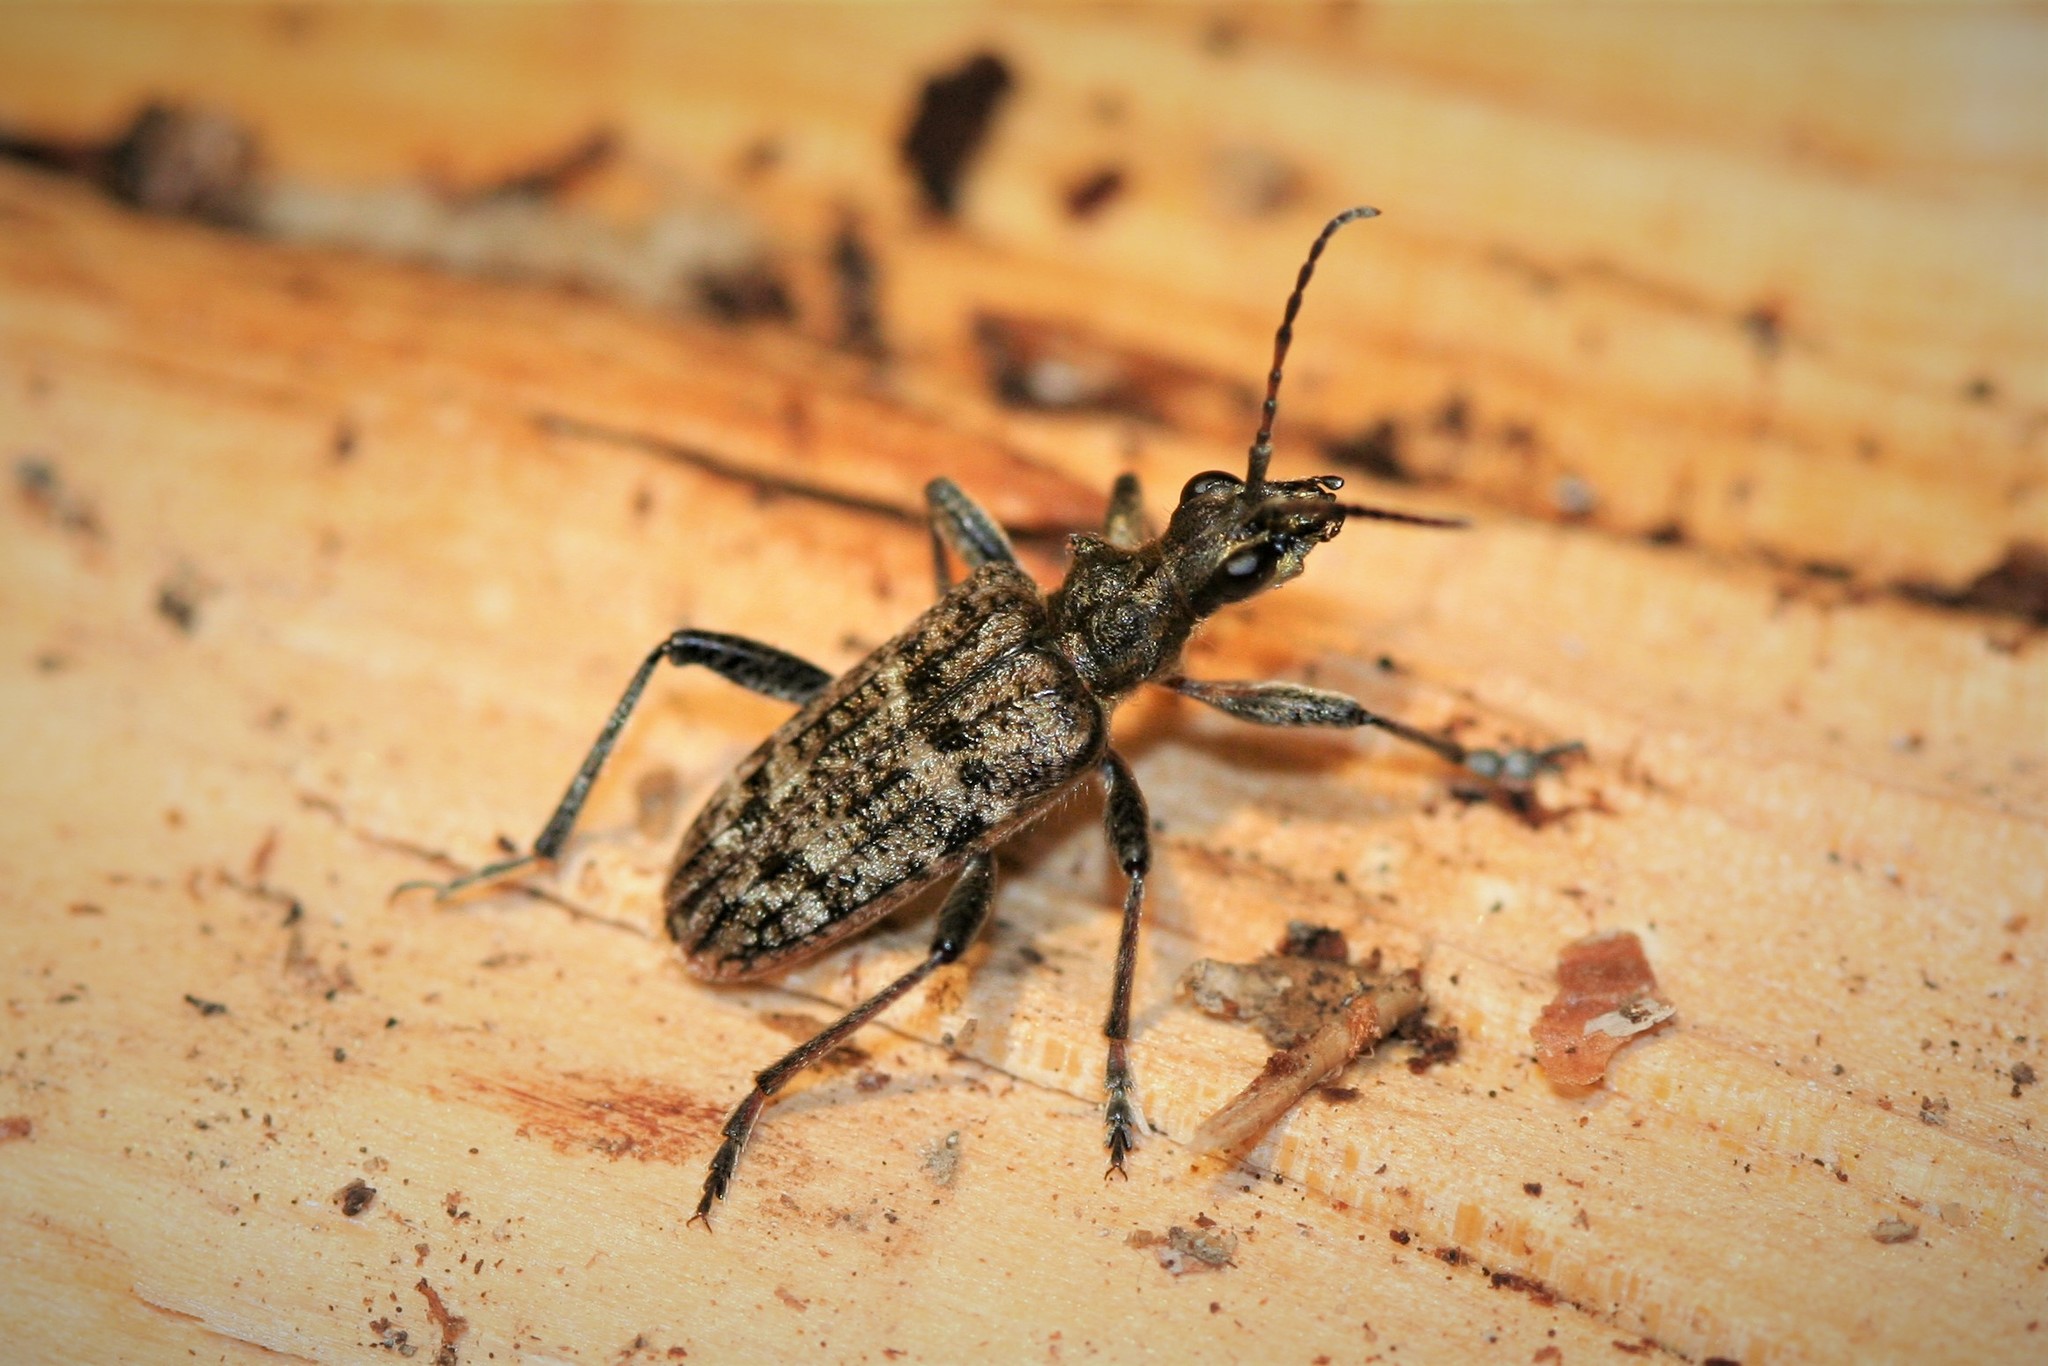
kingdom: Animalia
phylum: Arthropoda
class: Insecta
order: Coleoptera
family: Cerambycidae
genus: Rhagium
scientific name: Rhagium inquisitor
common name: Ribbed pine borer
